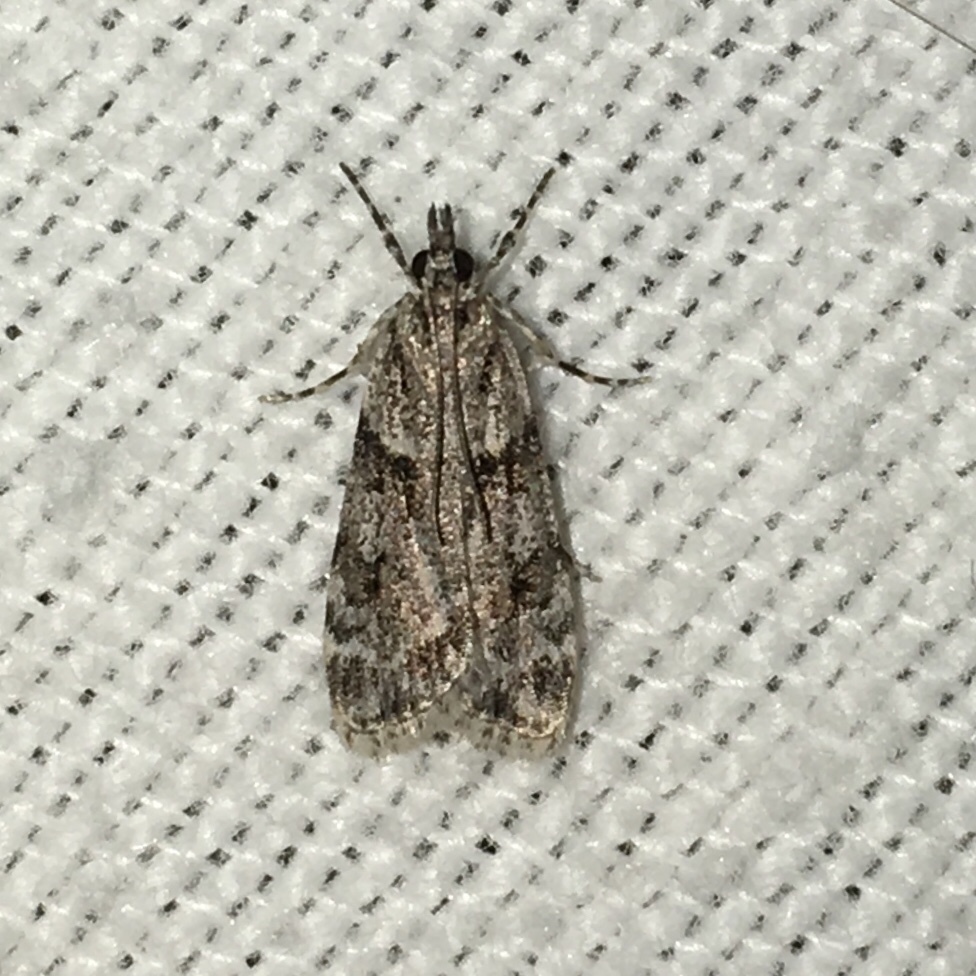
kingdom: Animalia
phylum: Arthropoda
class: Insecta
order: Lepidoptera
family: Crambidae
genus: Scoparia
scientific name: Scoparia biplagialis
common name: Double-striped scoparia moth
